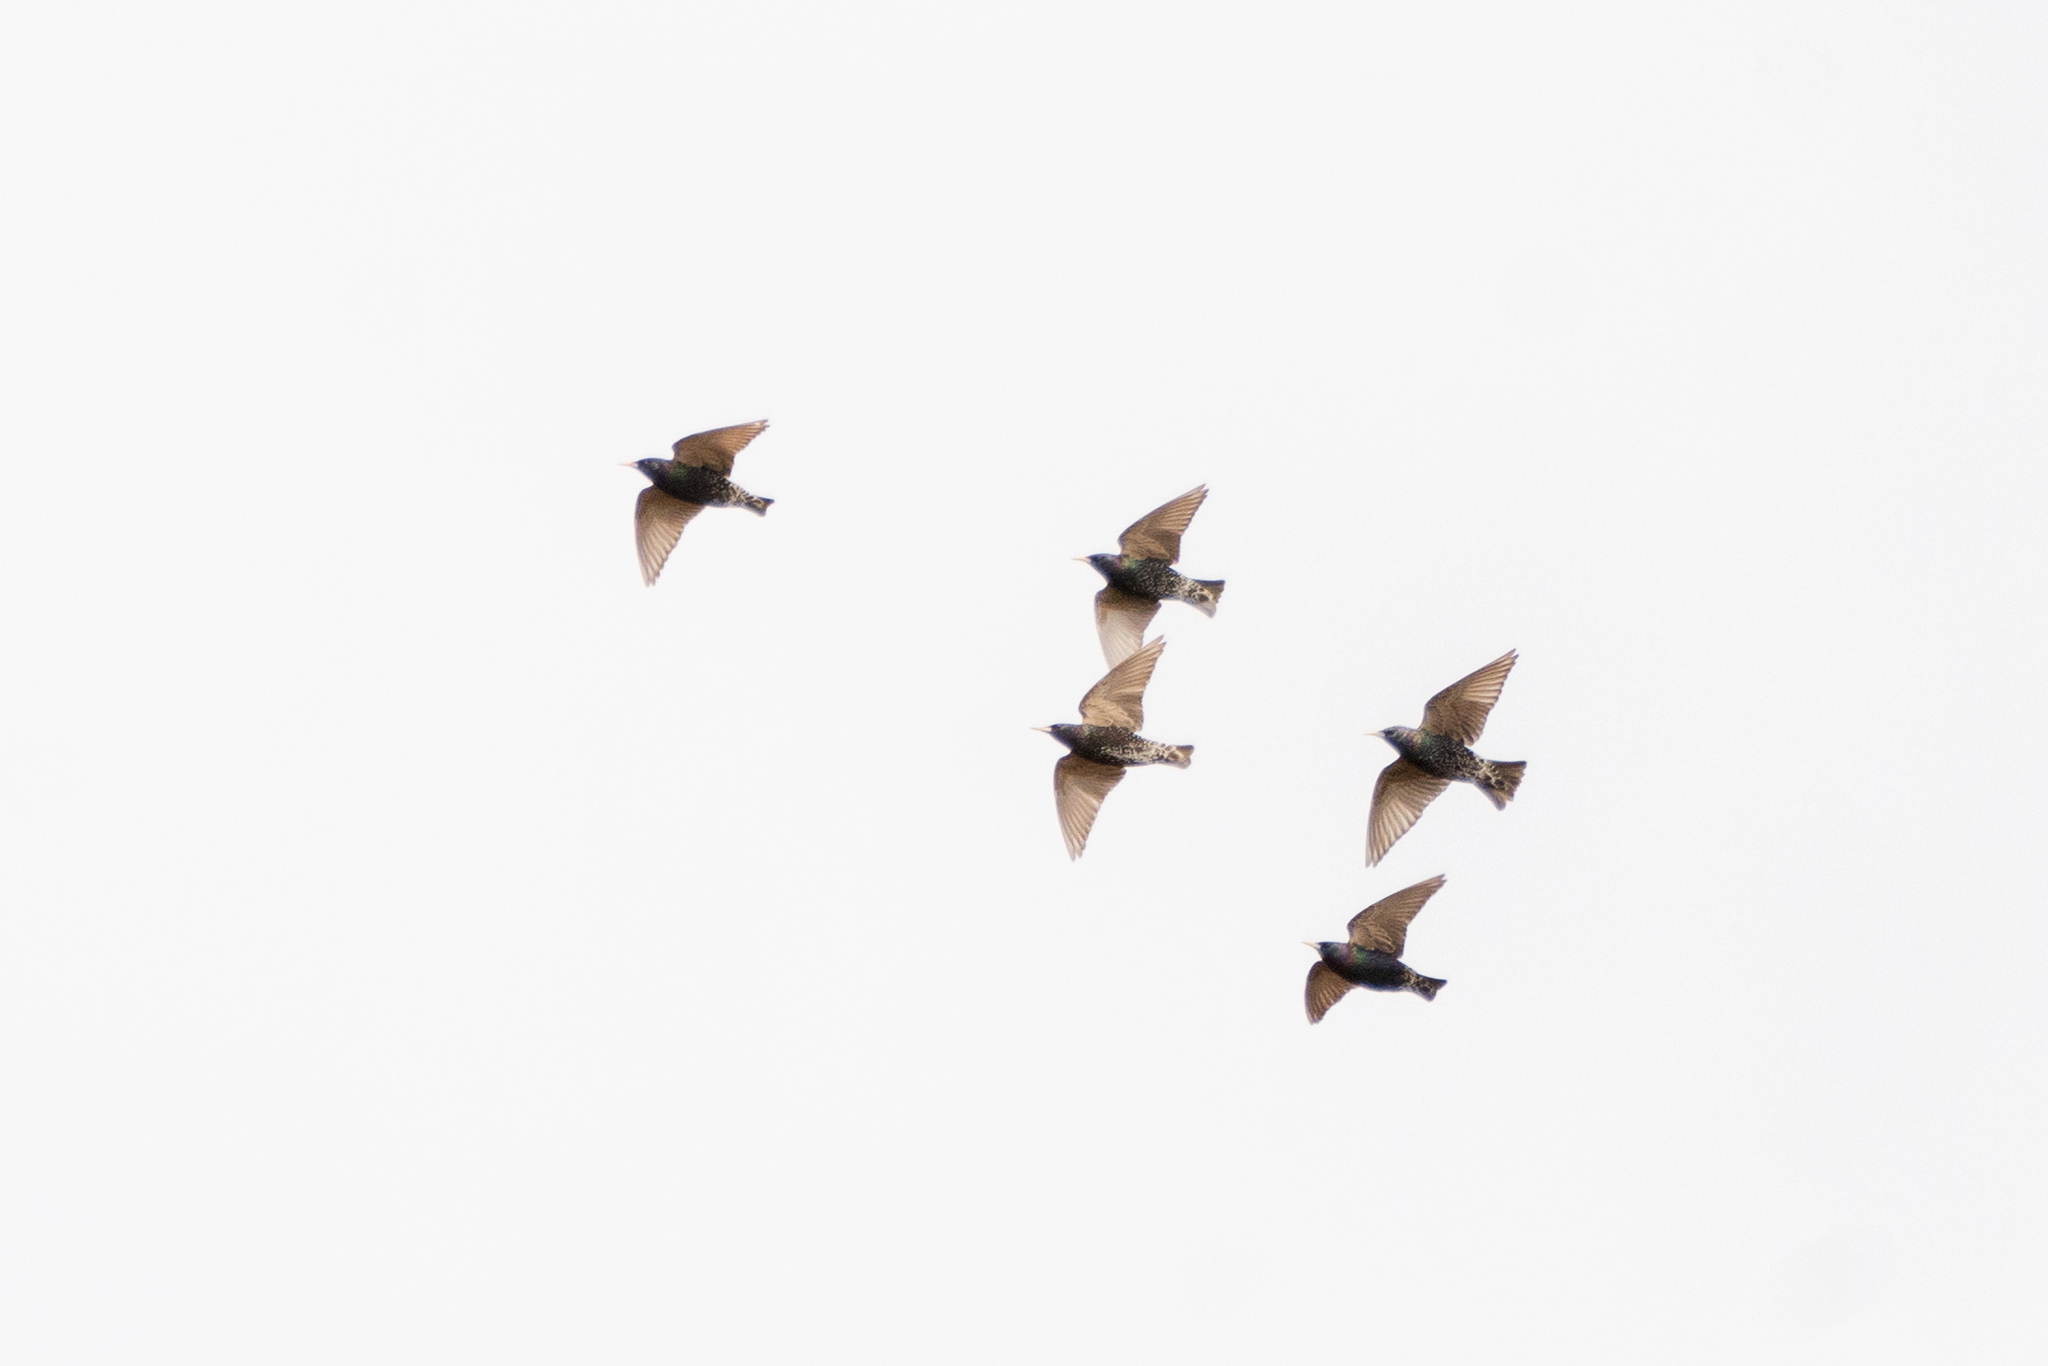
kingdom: Animalia
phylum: Chordata
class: Aves
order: Passeriformes
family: Sturnidae
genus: Sturnus
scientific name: Sturnus vulgaris
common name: Common starling
